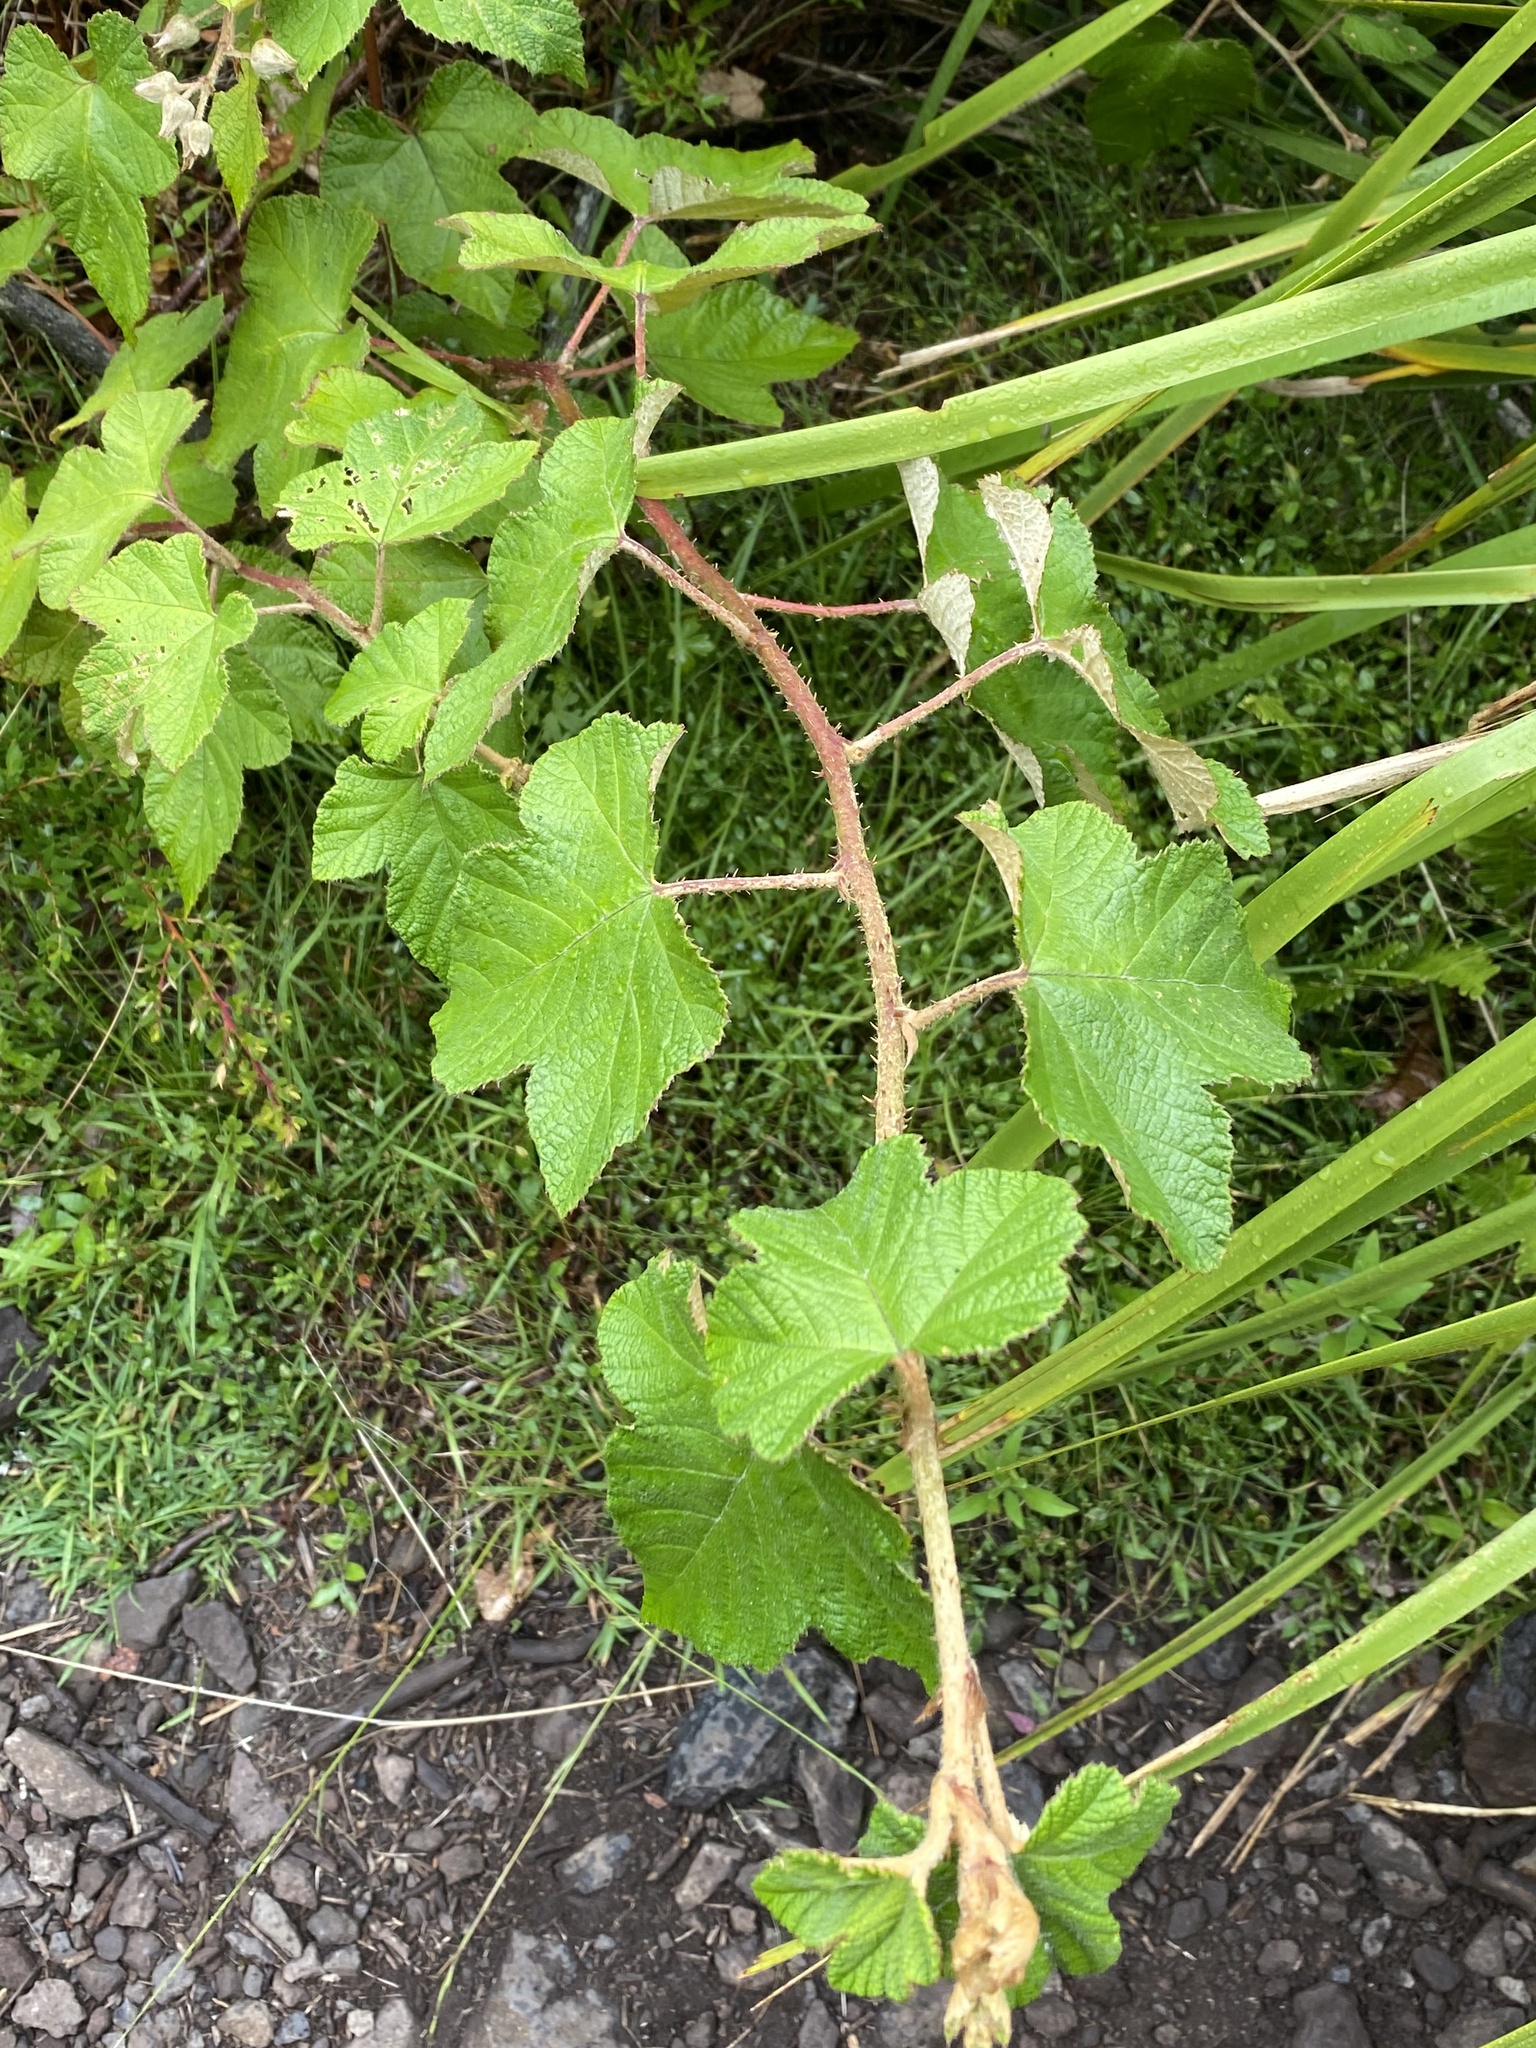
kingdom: Plantae
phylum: Tracheophyta
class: Magnoliopsida
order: Rosales
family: Rosaceae
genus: Rubus
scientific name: Rubus moluccanus
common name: Wild raspberry
